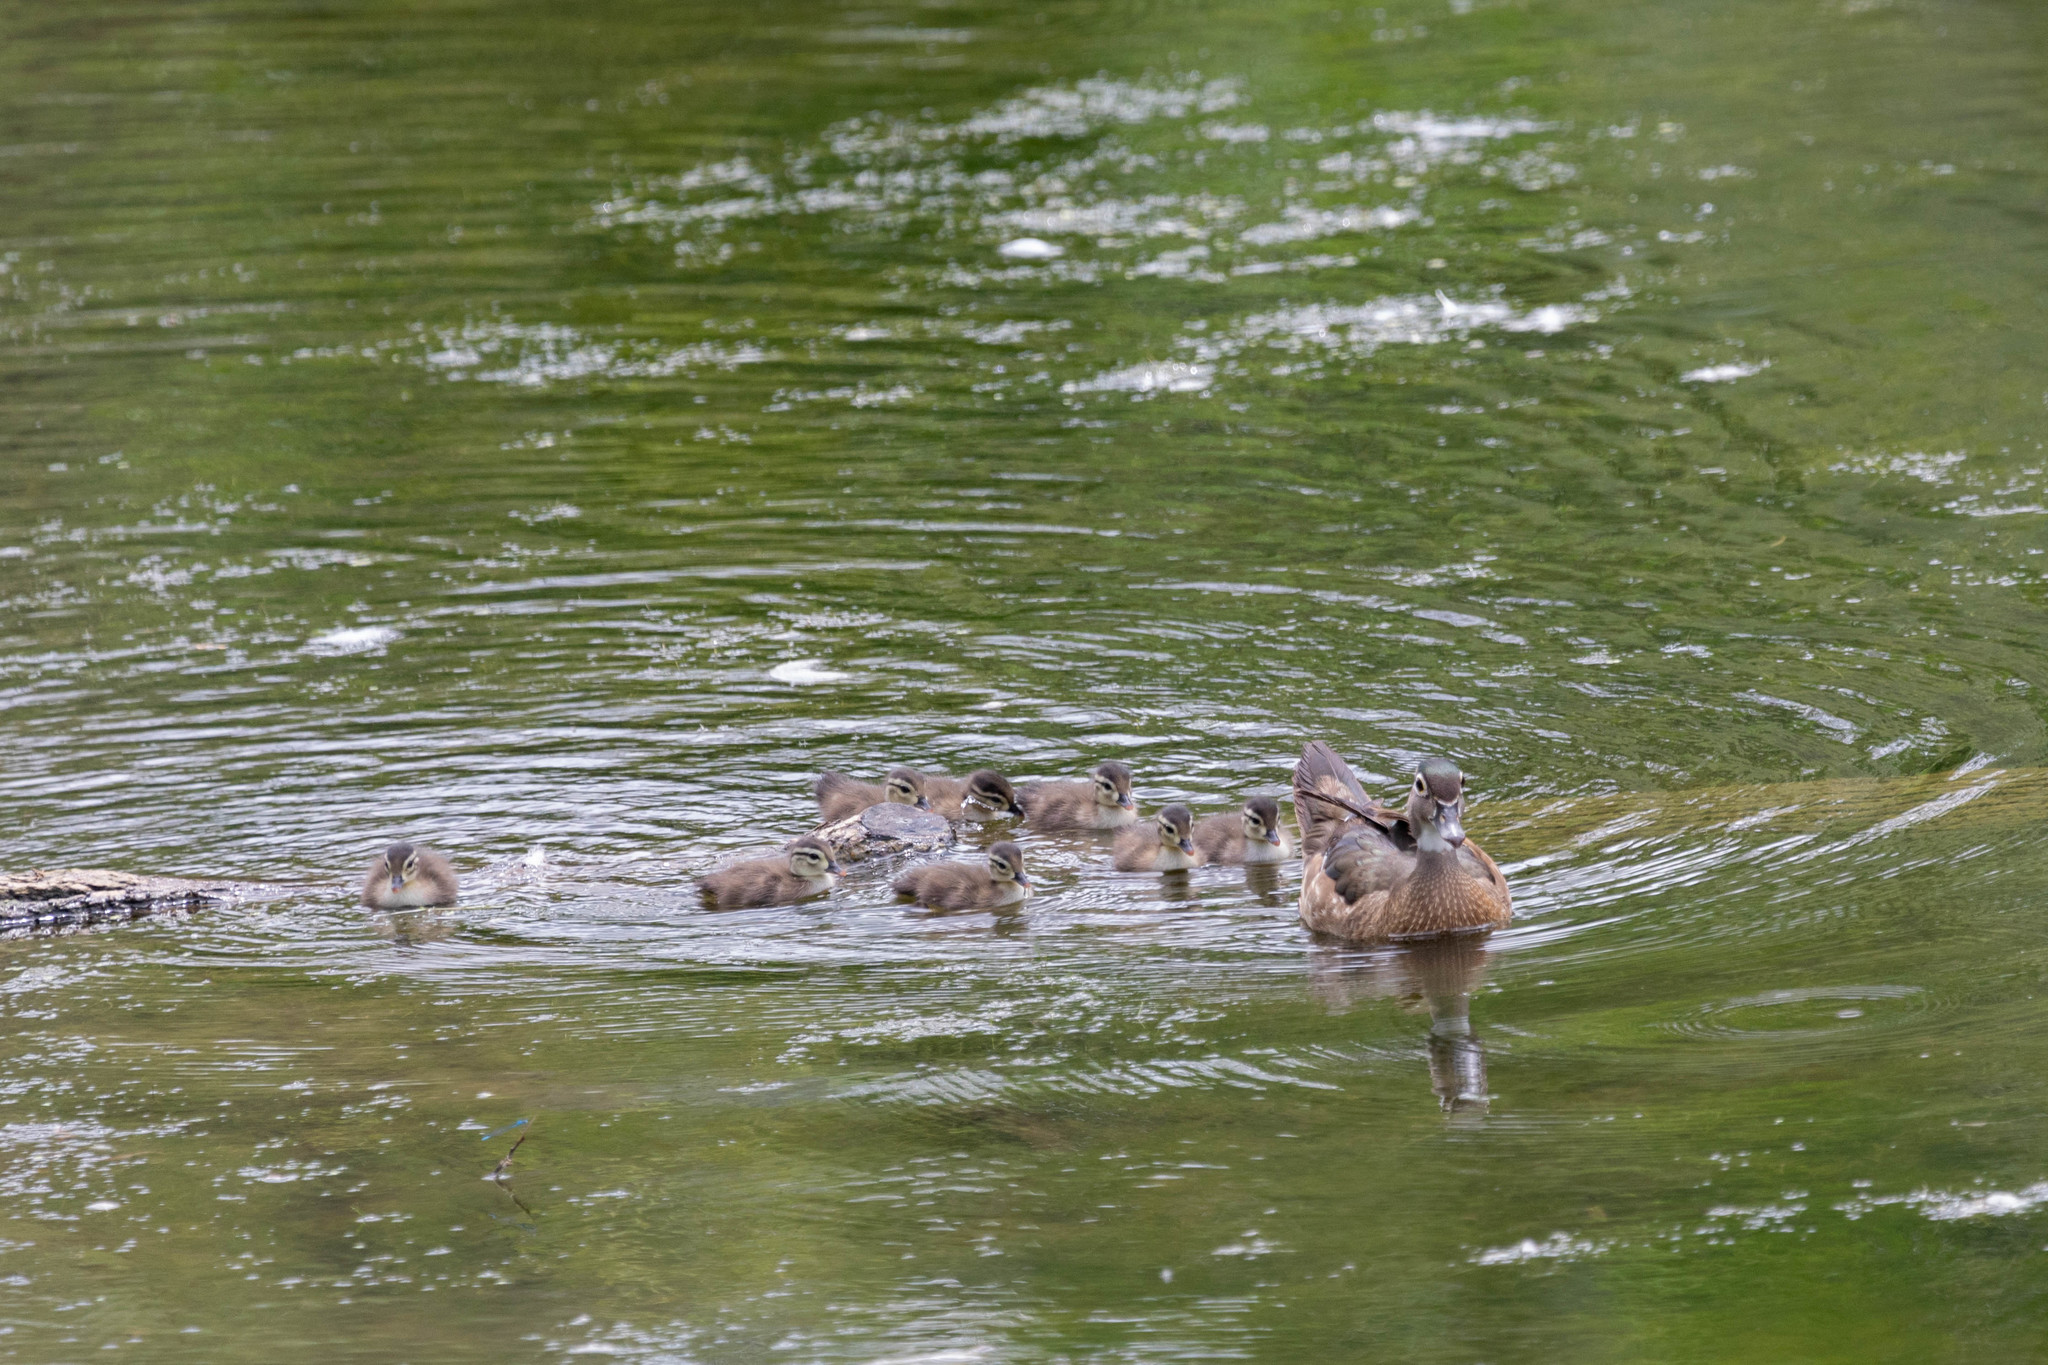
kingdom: Animalia
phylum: Chordata
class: Aves
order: Anseriformes
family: Anatidae
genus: Aix
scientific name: Aix sponsa
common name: Wood duck
